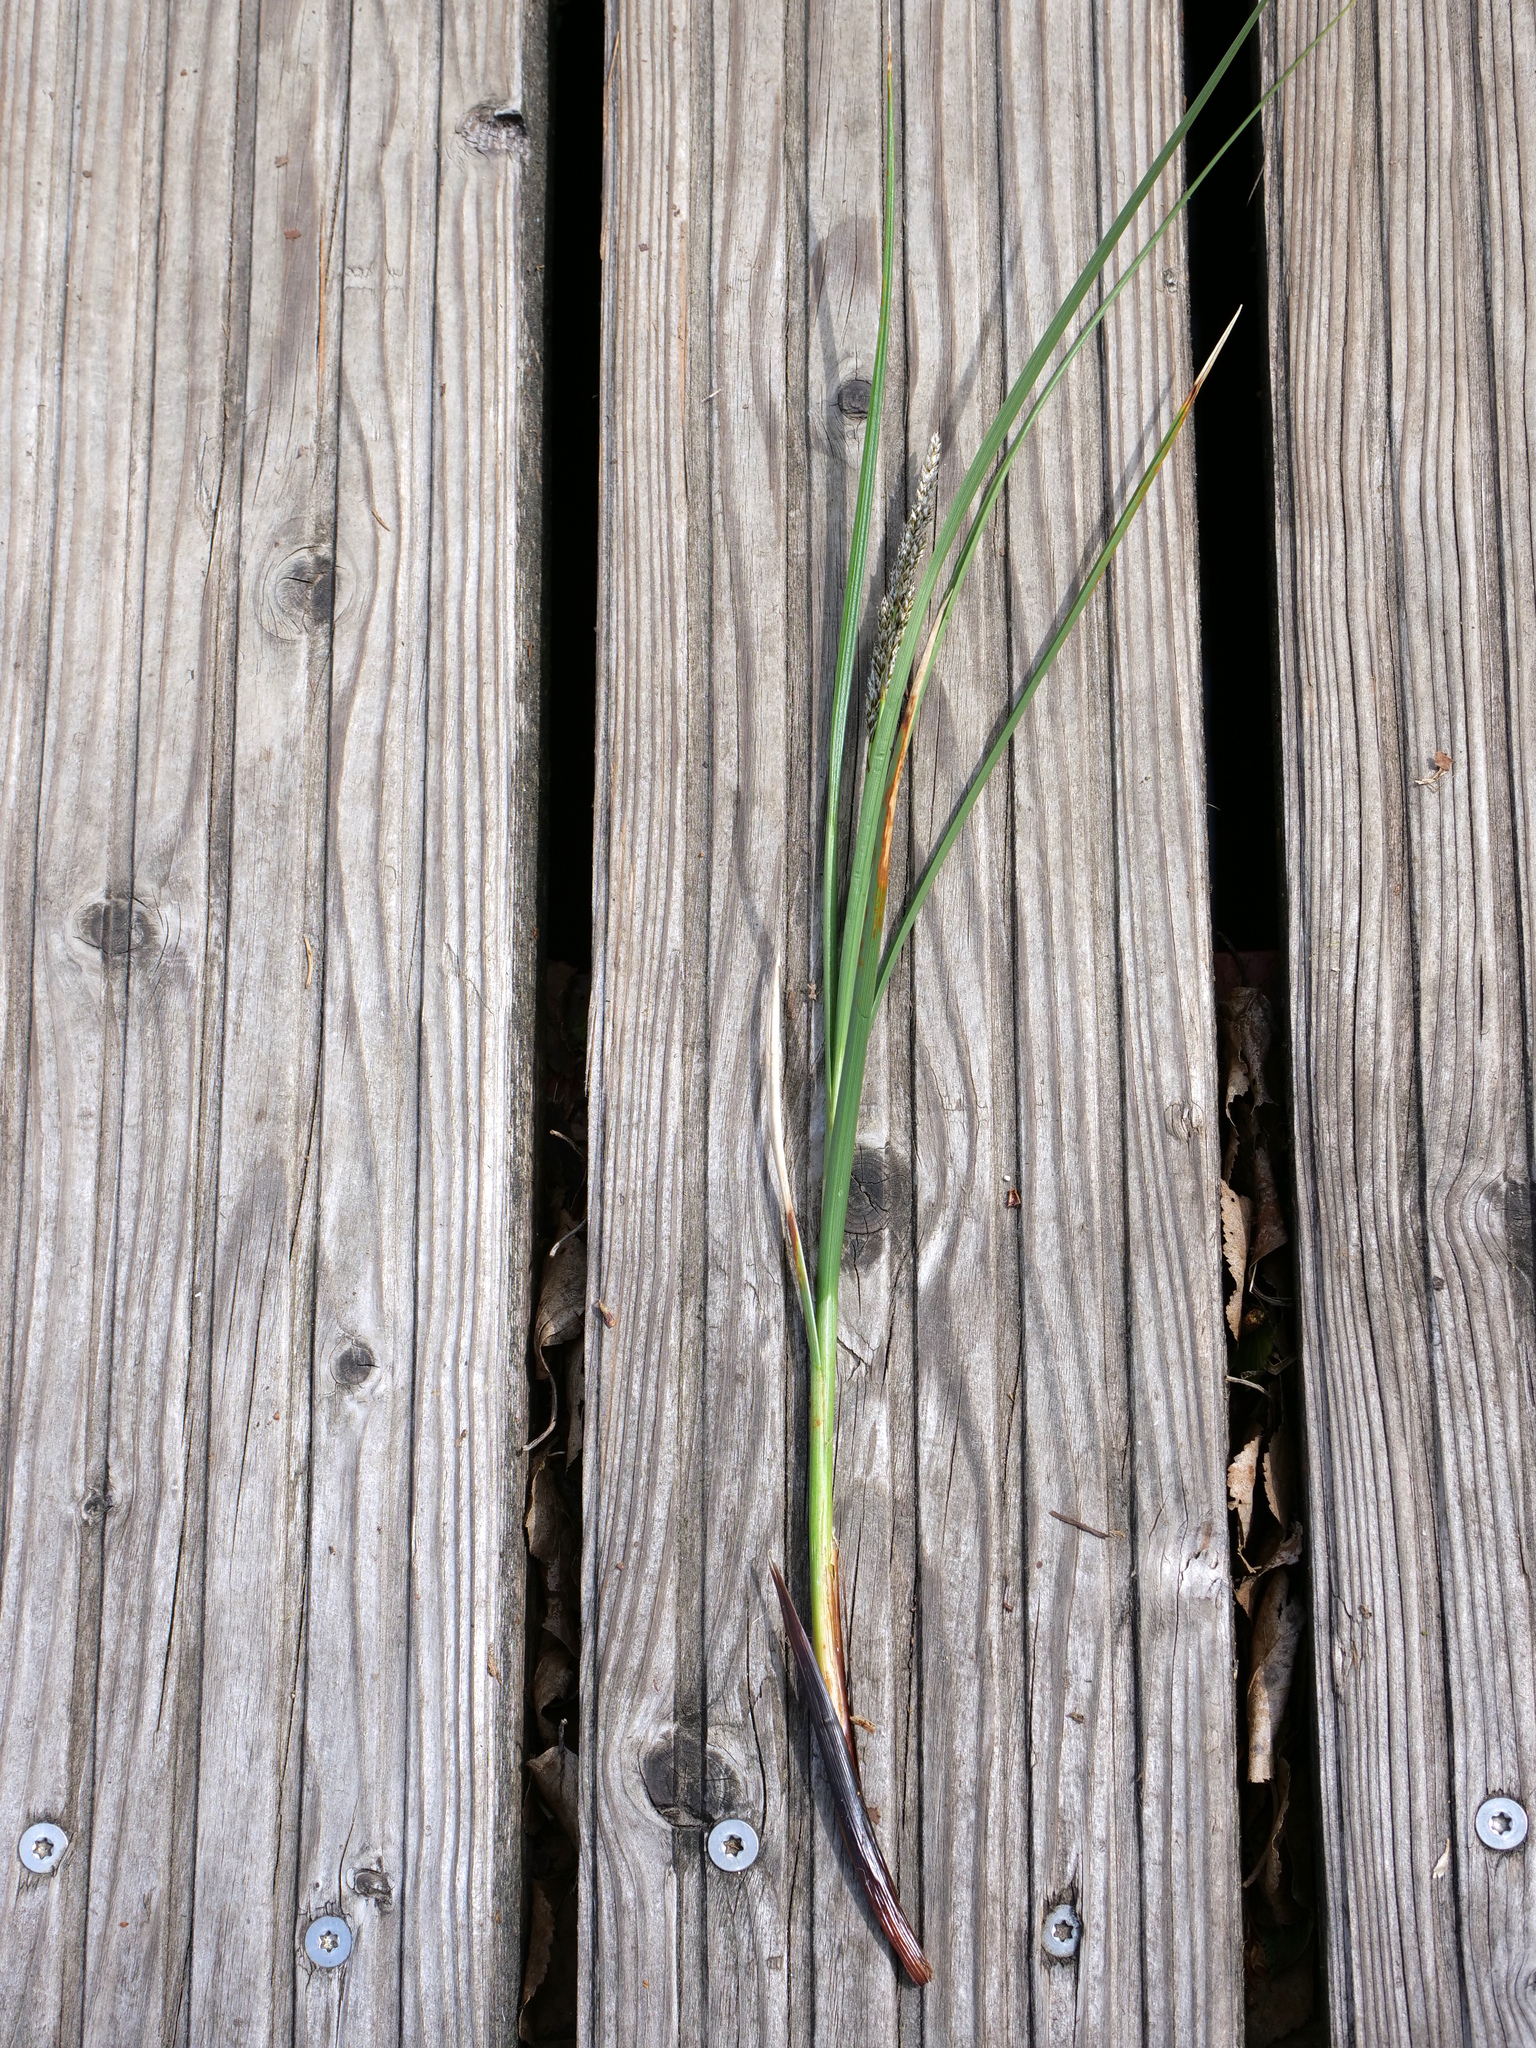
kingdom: Plantae
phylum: Tracheophyta
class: Liliopsida
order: Poales
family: Cyperaceae
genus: Carex
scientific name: Carex paniculata
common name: Greater tussock-sedge
